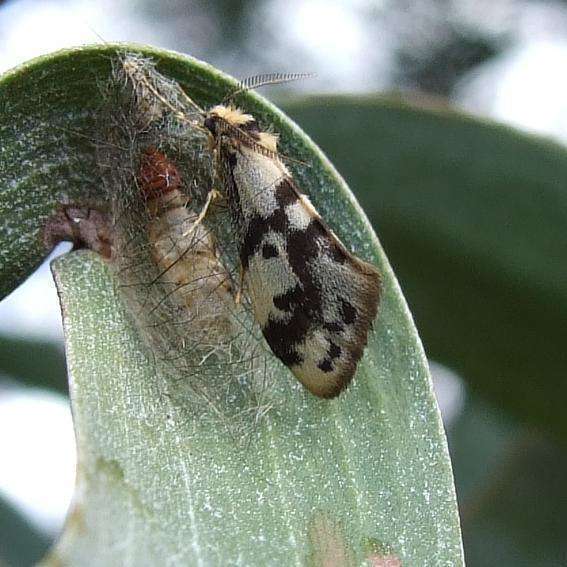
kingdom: Animalia
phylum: Arthropoda
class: Insecta
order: Lepidoptera
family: Erebidae
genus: Anestia
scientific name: Anestia
